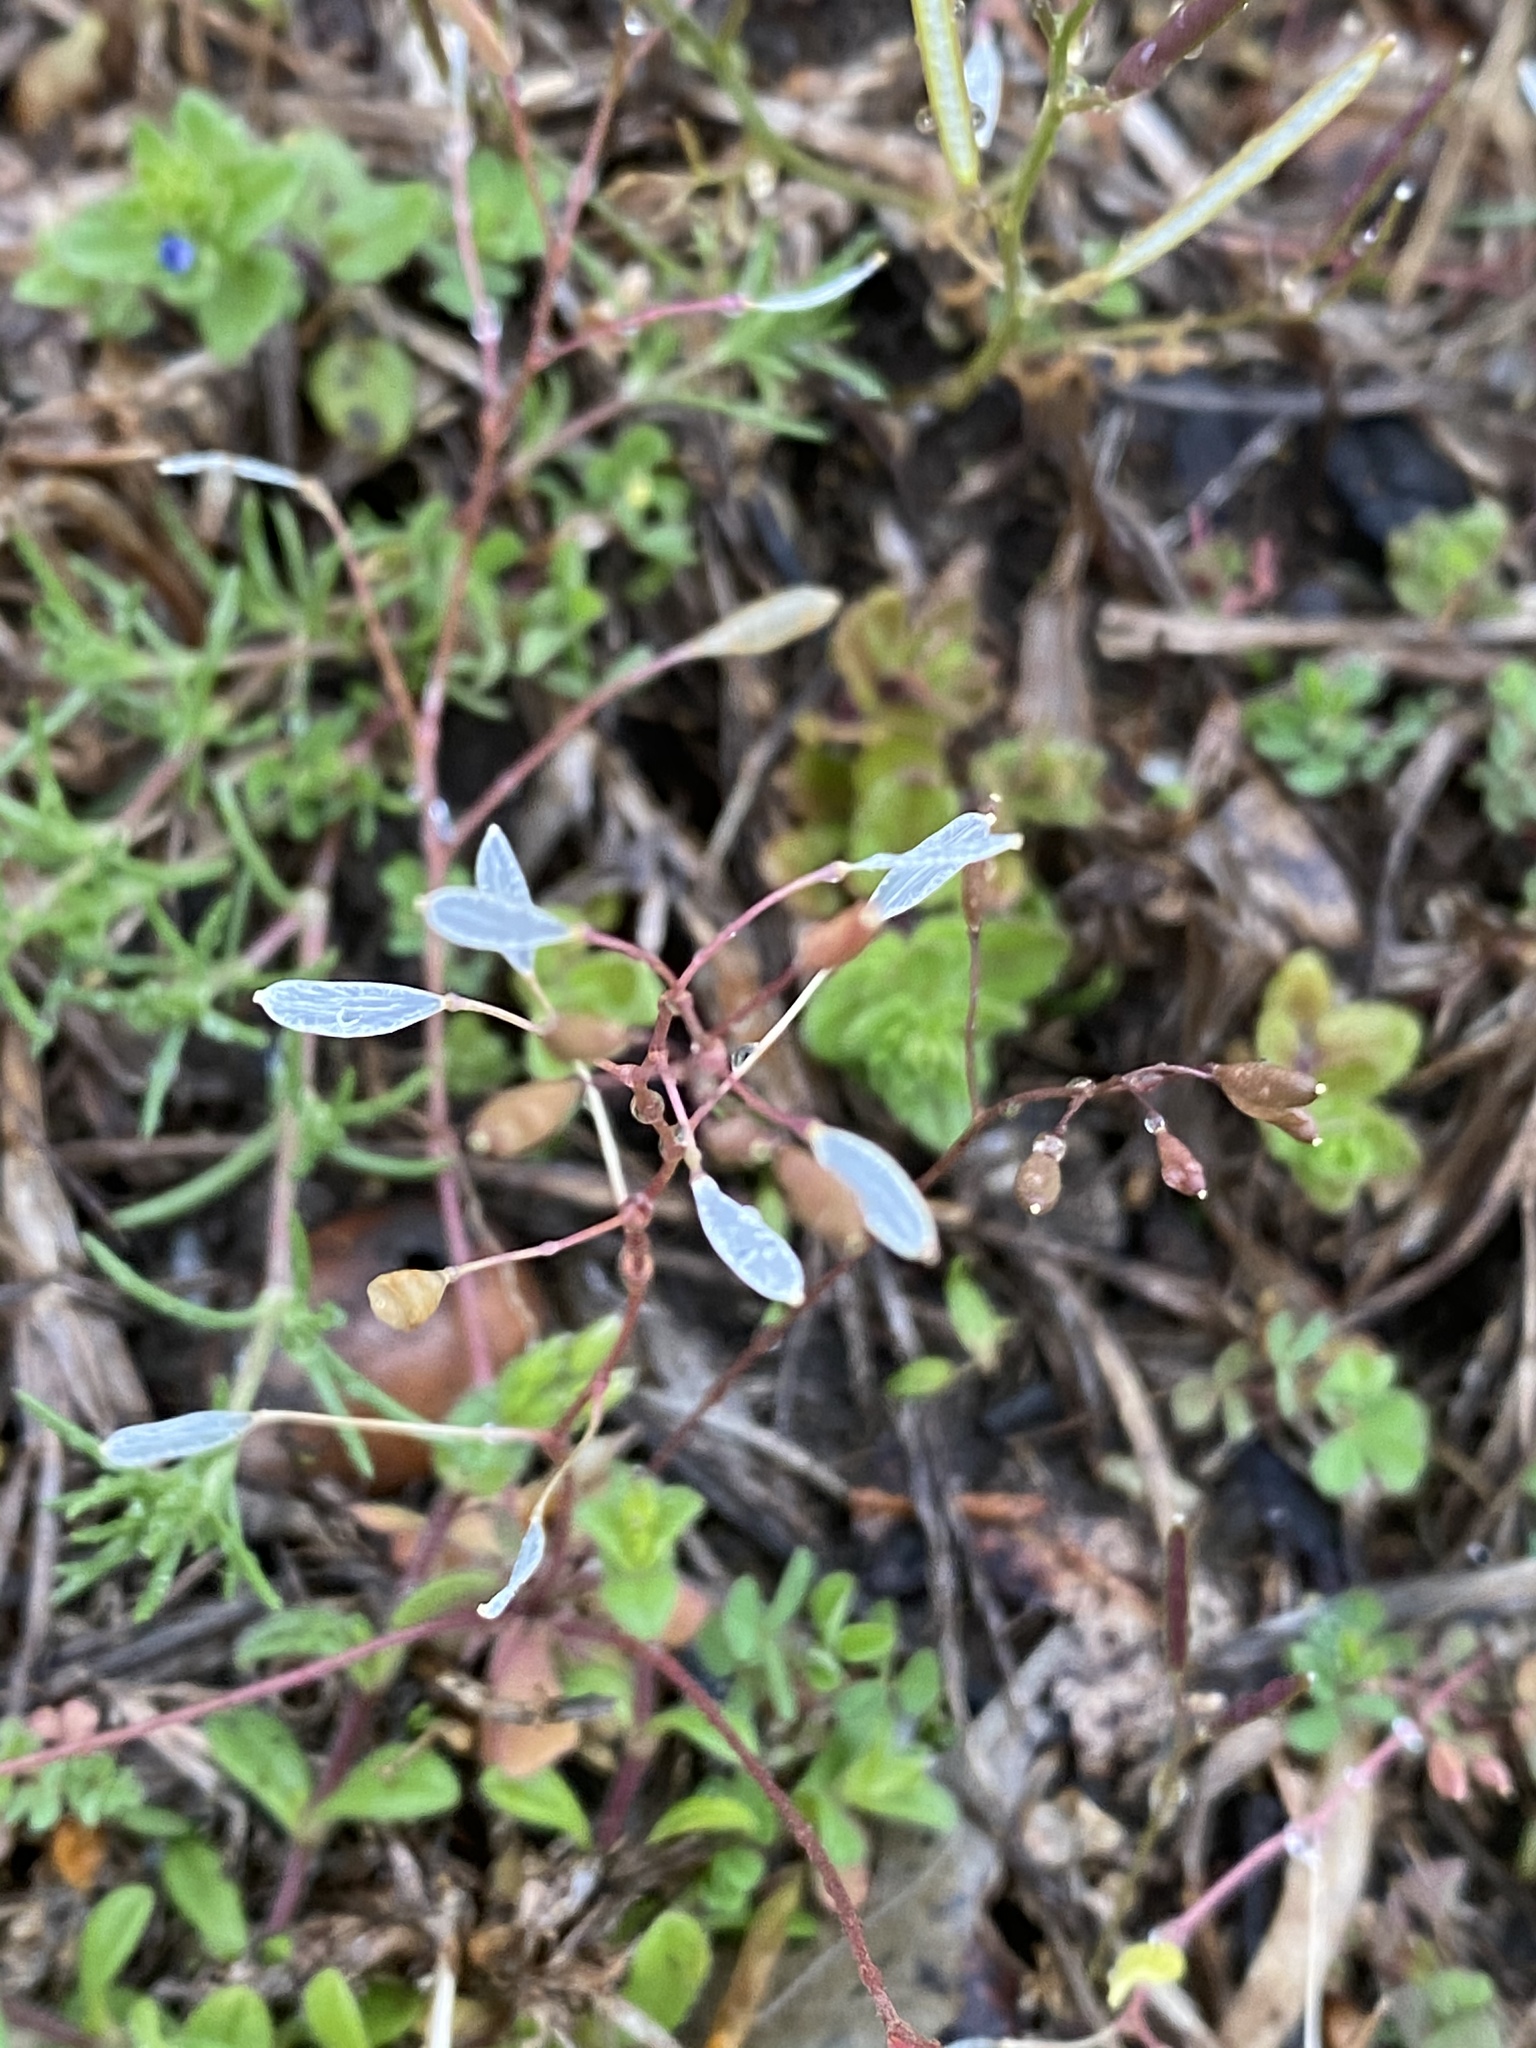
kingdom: Plantae
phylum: Tracheophyta
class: Magnoliopsida
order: Brassicales
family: Brassicaceae
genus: Draba
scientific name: Draba verna
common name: Spring draba
